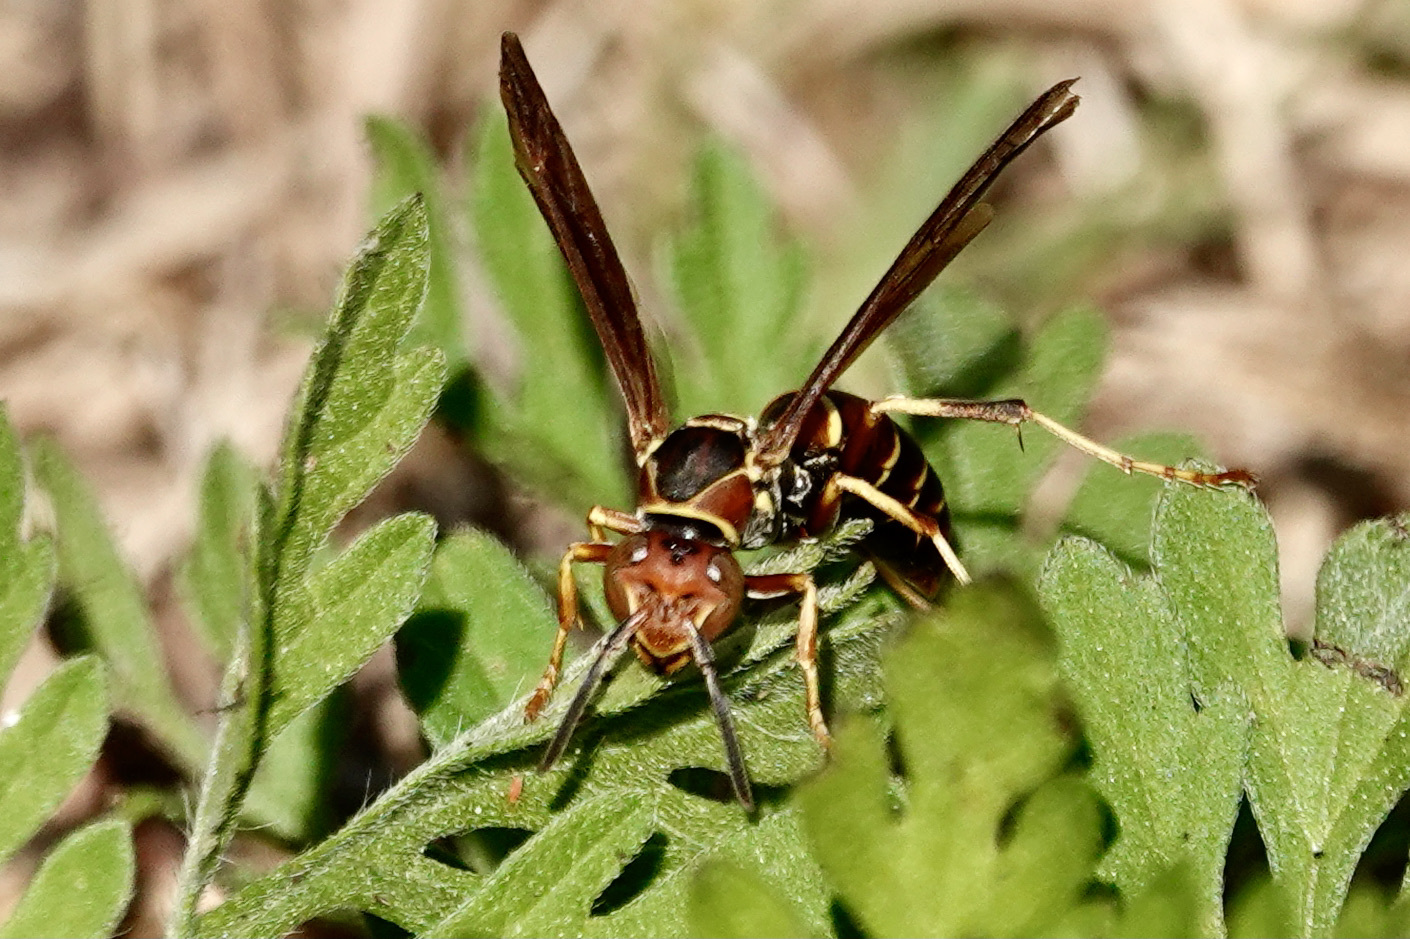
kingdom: Animalia
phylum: Arthropoda
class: Insecta
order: Hymenoptera
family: Eumenidae
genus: Polistes
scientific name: Polistes dorsalis
